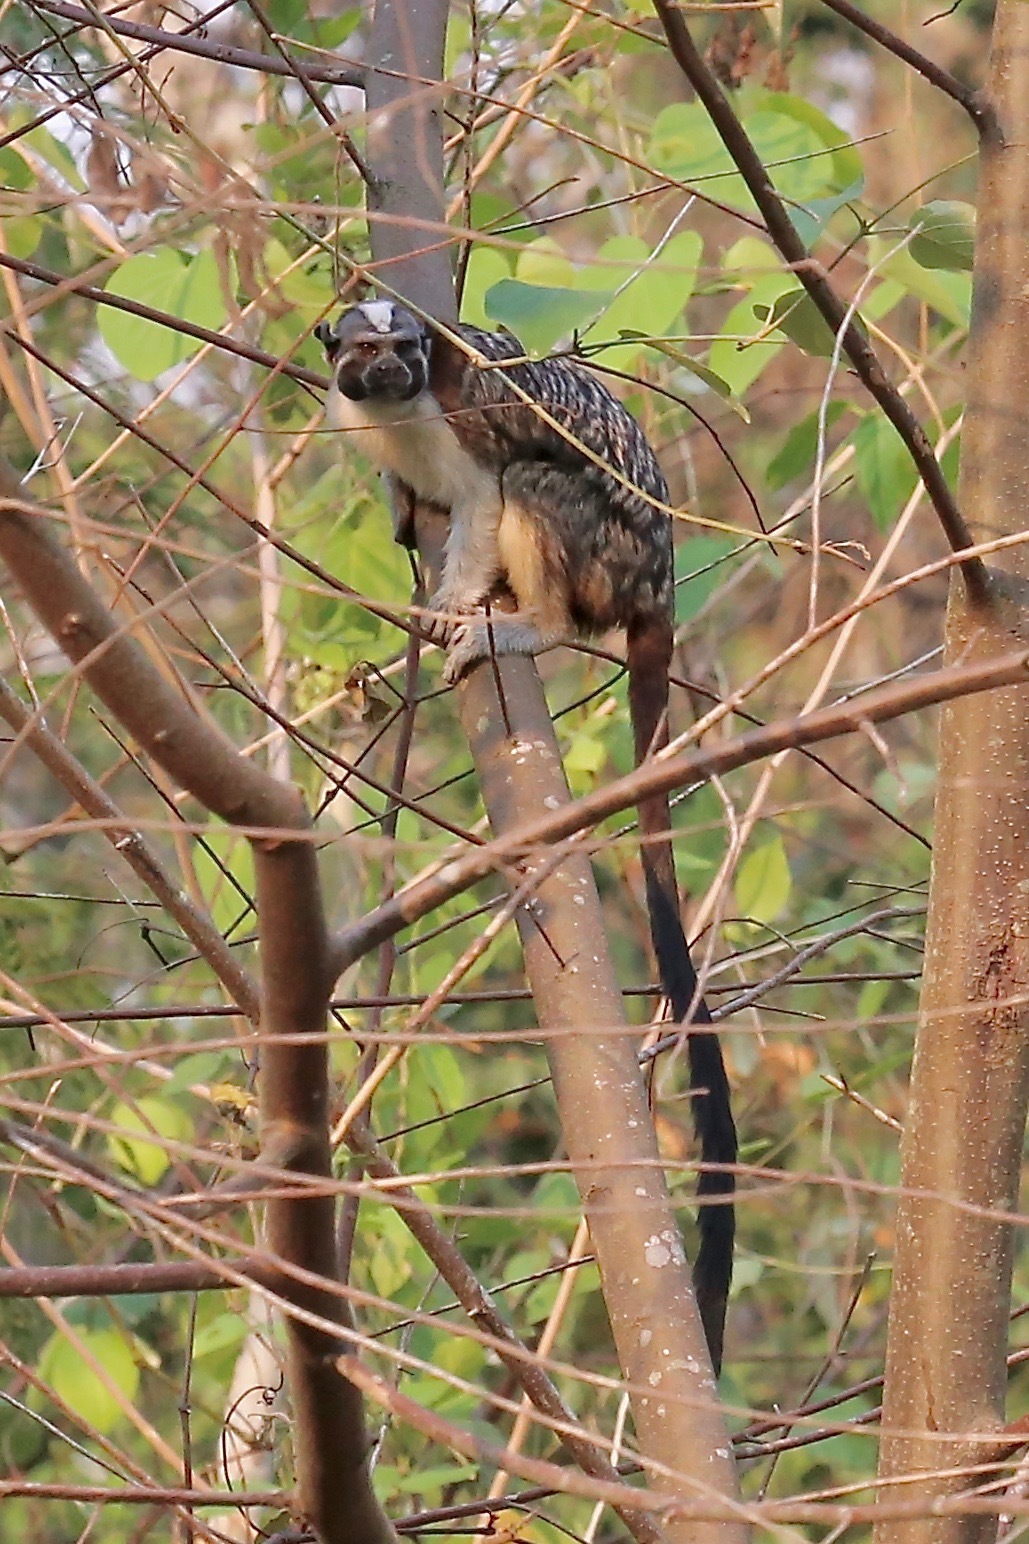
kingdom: Animalia
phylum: Chordata
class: Mammalia
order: Primates
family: Callitrichidae
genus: Saguinus
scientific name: Saguinus geoffroyi
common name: Geoffroy s tamarin
